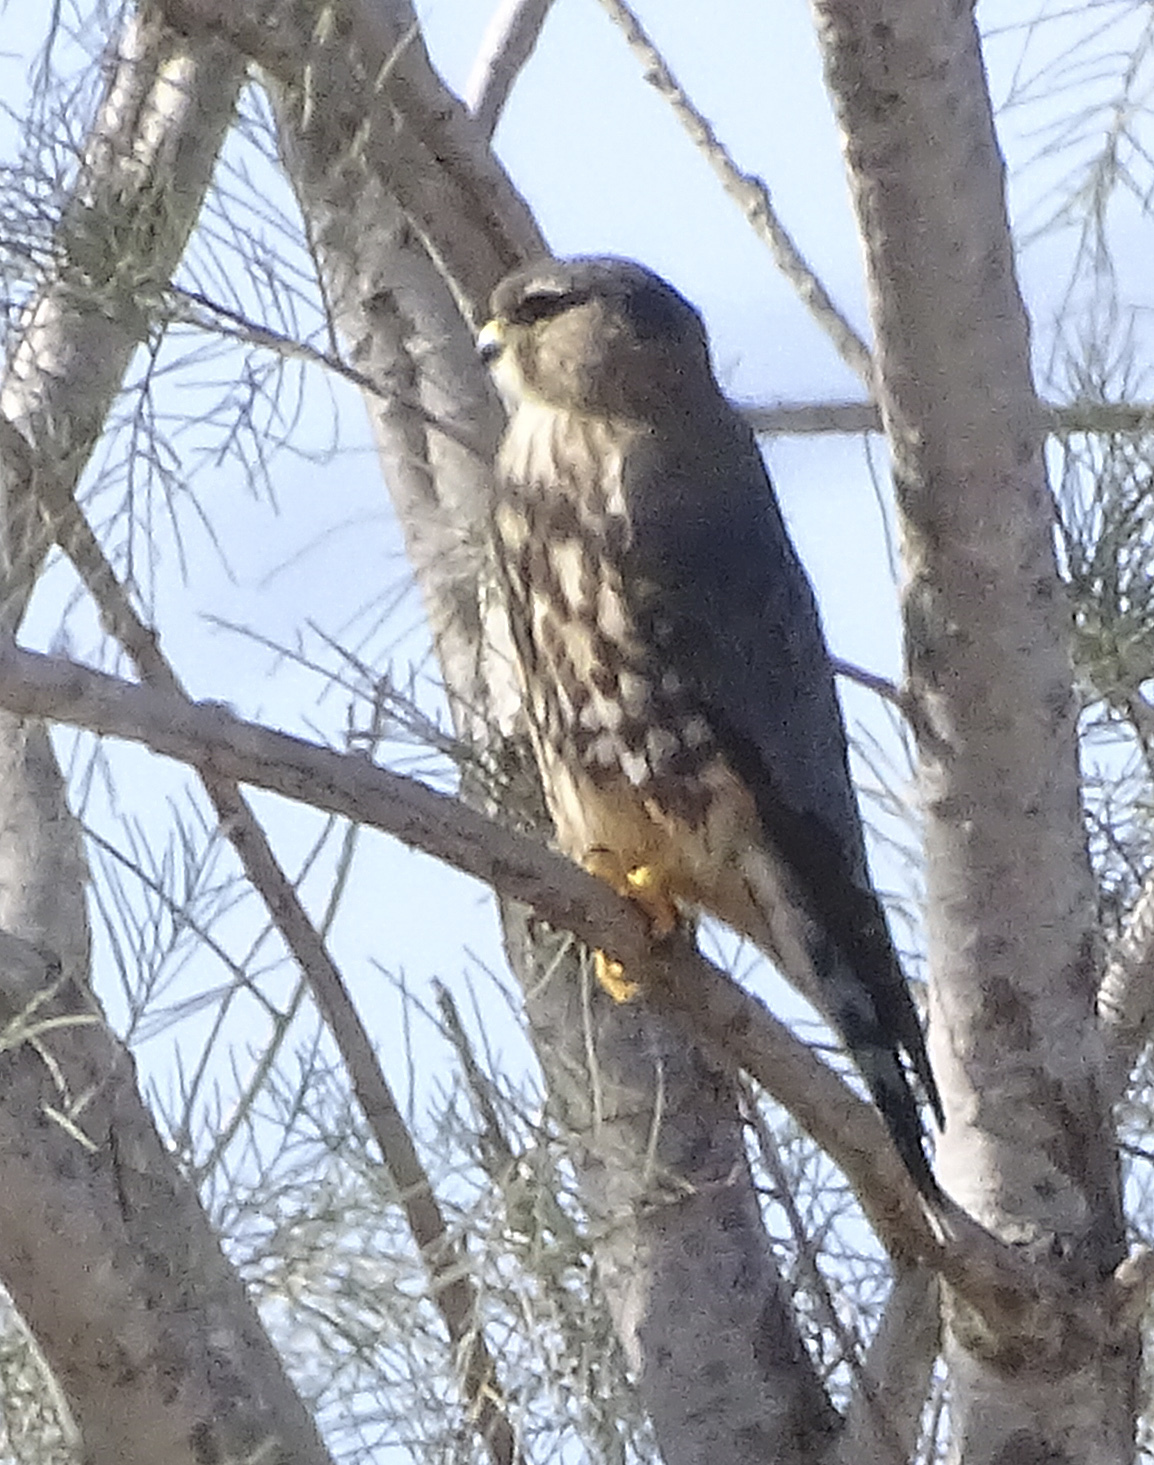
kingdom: Animalia
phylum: Chordata
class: Aves
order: Falconiformes
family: Falconidae
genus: Falco
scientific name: Falco columbarius
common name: Merlin
